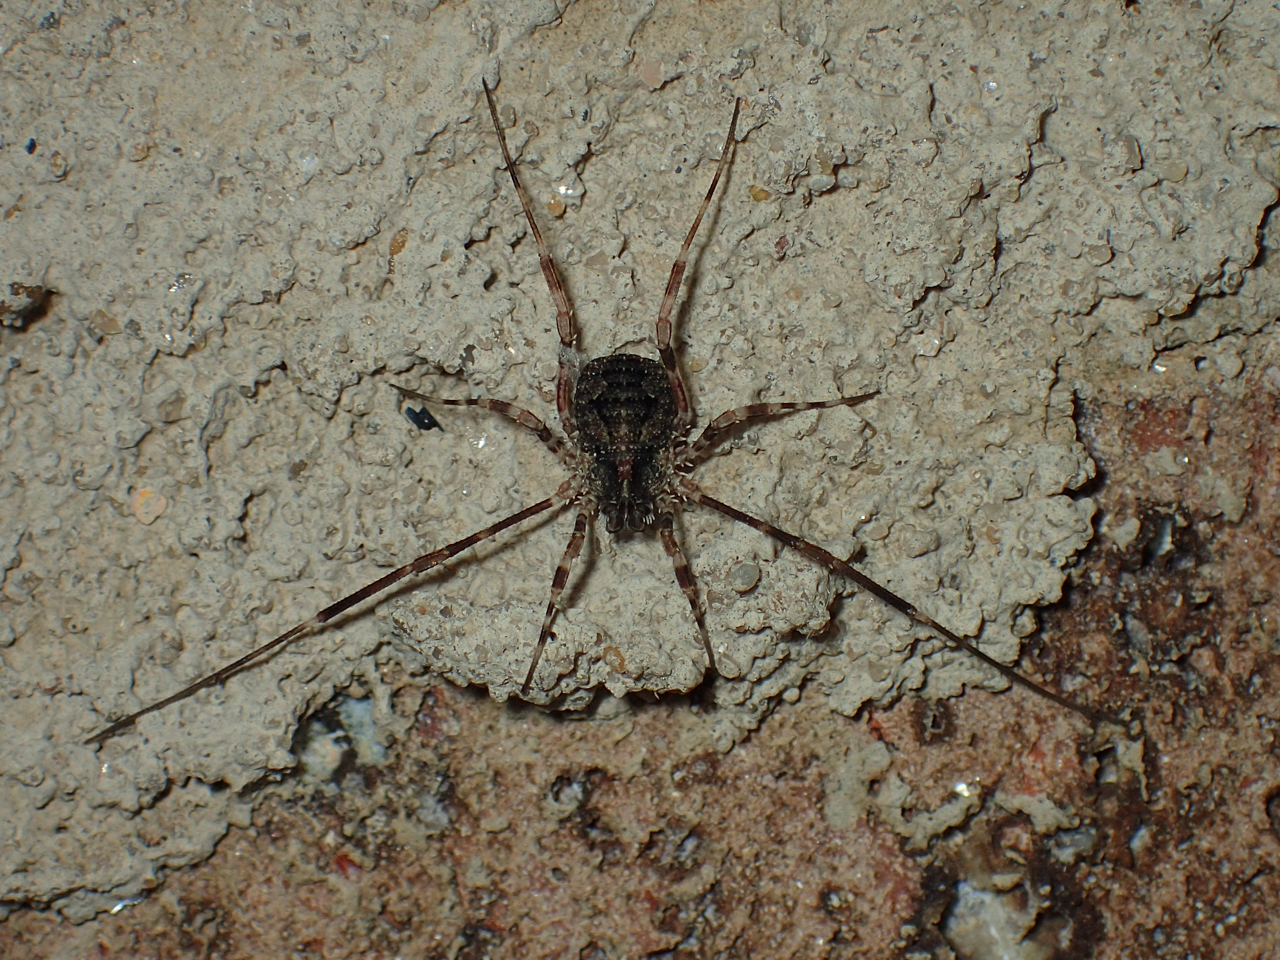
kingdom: Animalia
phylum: Arthropoda
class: Arachnida
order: Opiliones
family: Phalangiidae
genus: Odiellus
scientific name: Odiellus pictus
